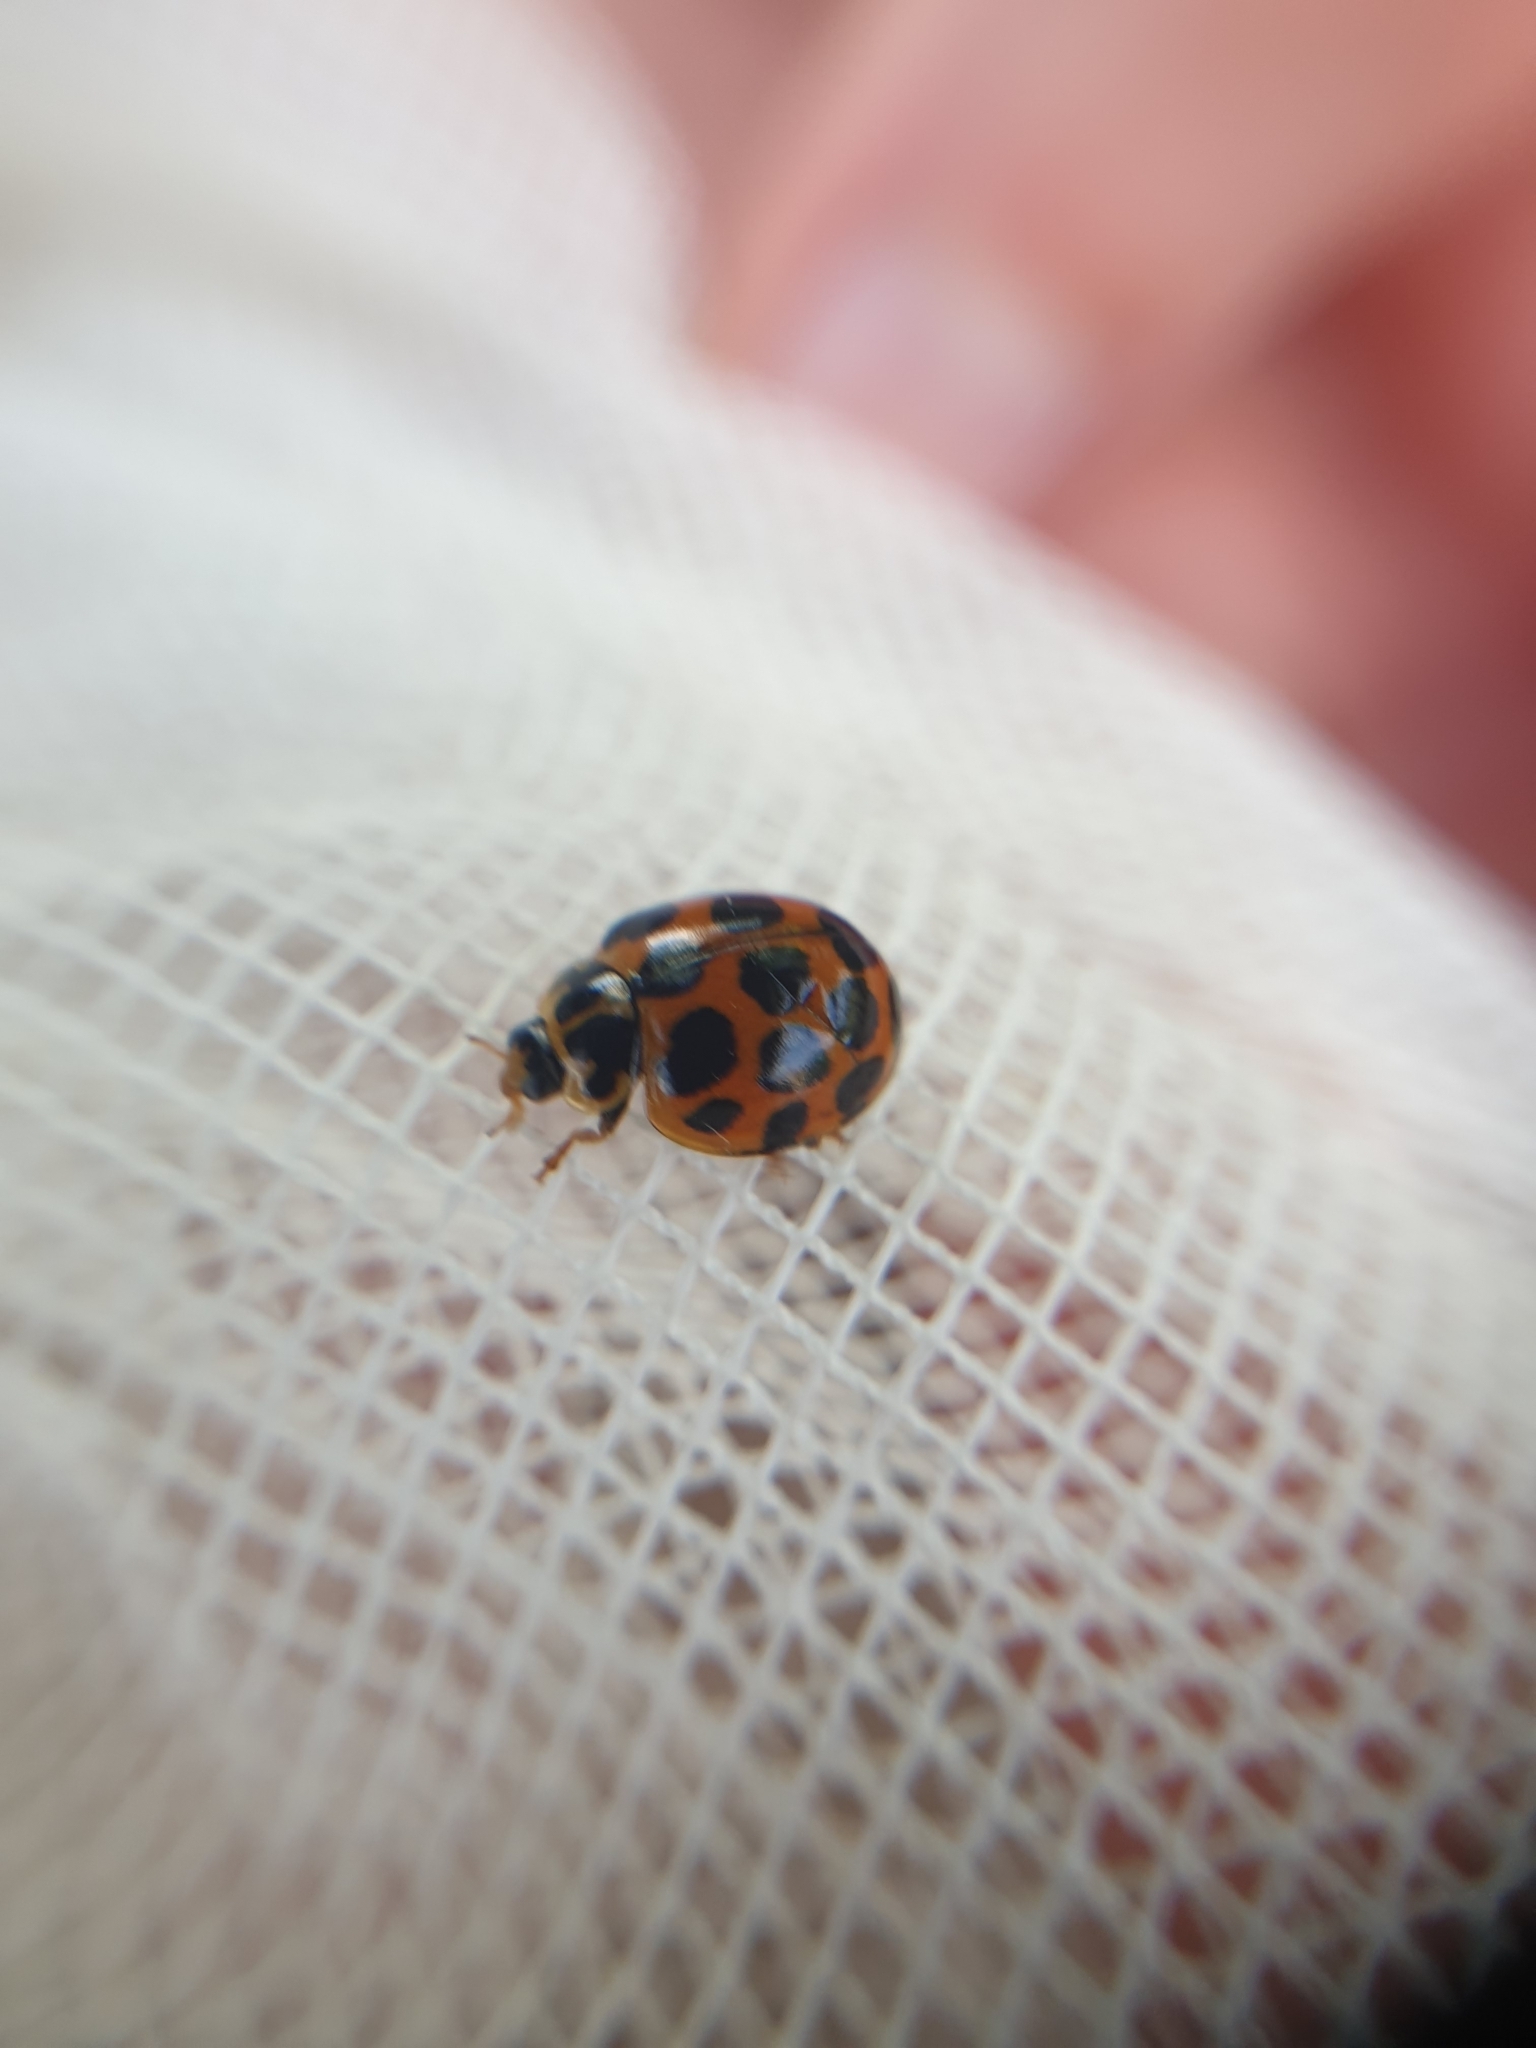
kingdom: Animalia
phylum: Arthropoda
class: Insecta
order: Coleoptera
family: Coccinellidae
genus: Harmonia
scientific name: Harmonia conformis
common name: Common spotted ladybird beetle
